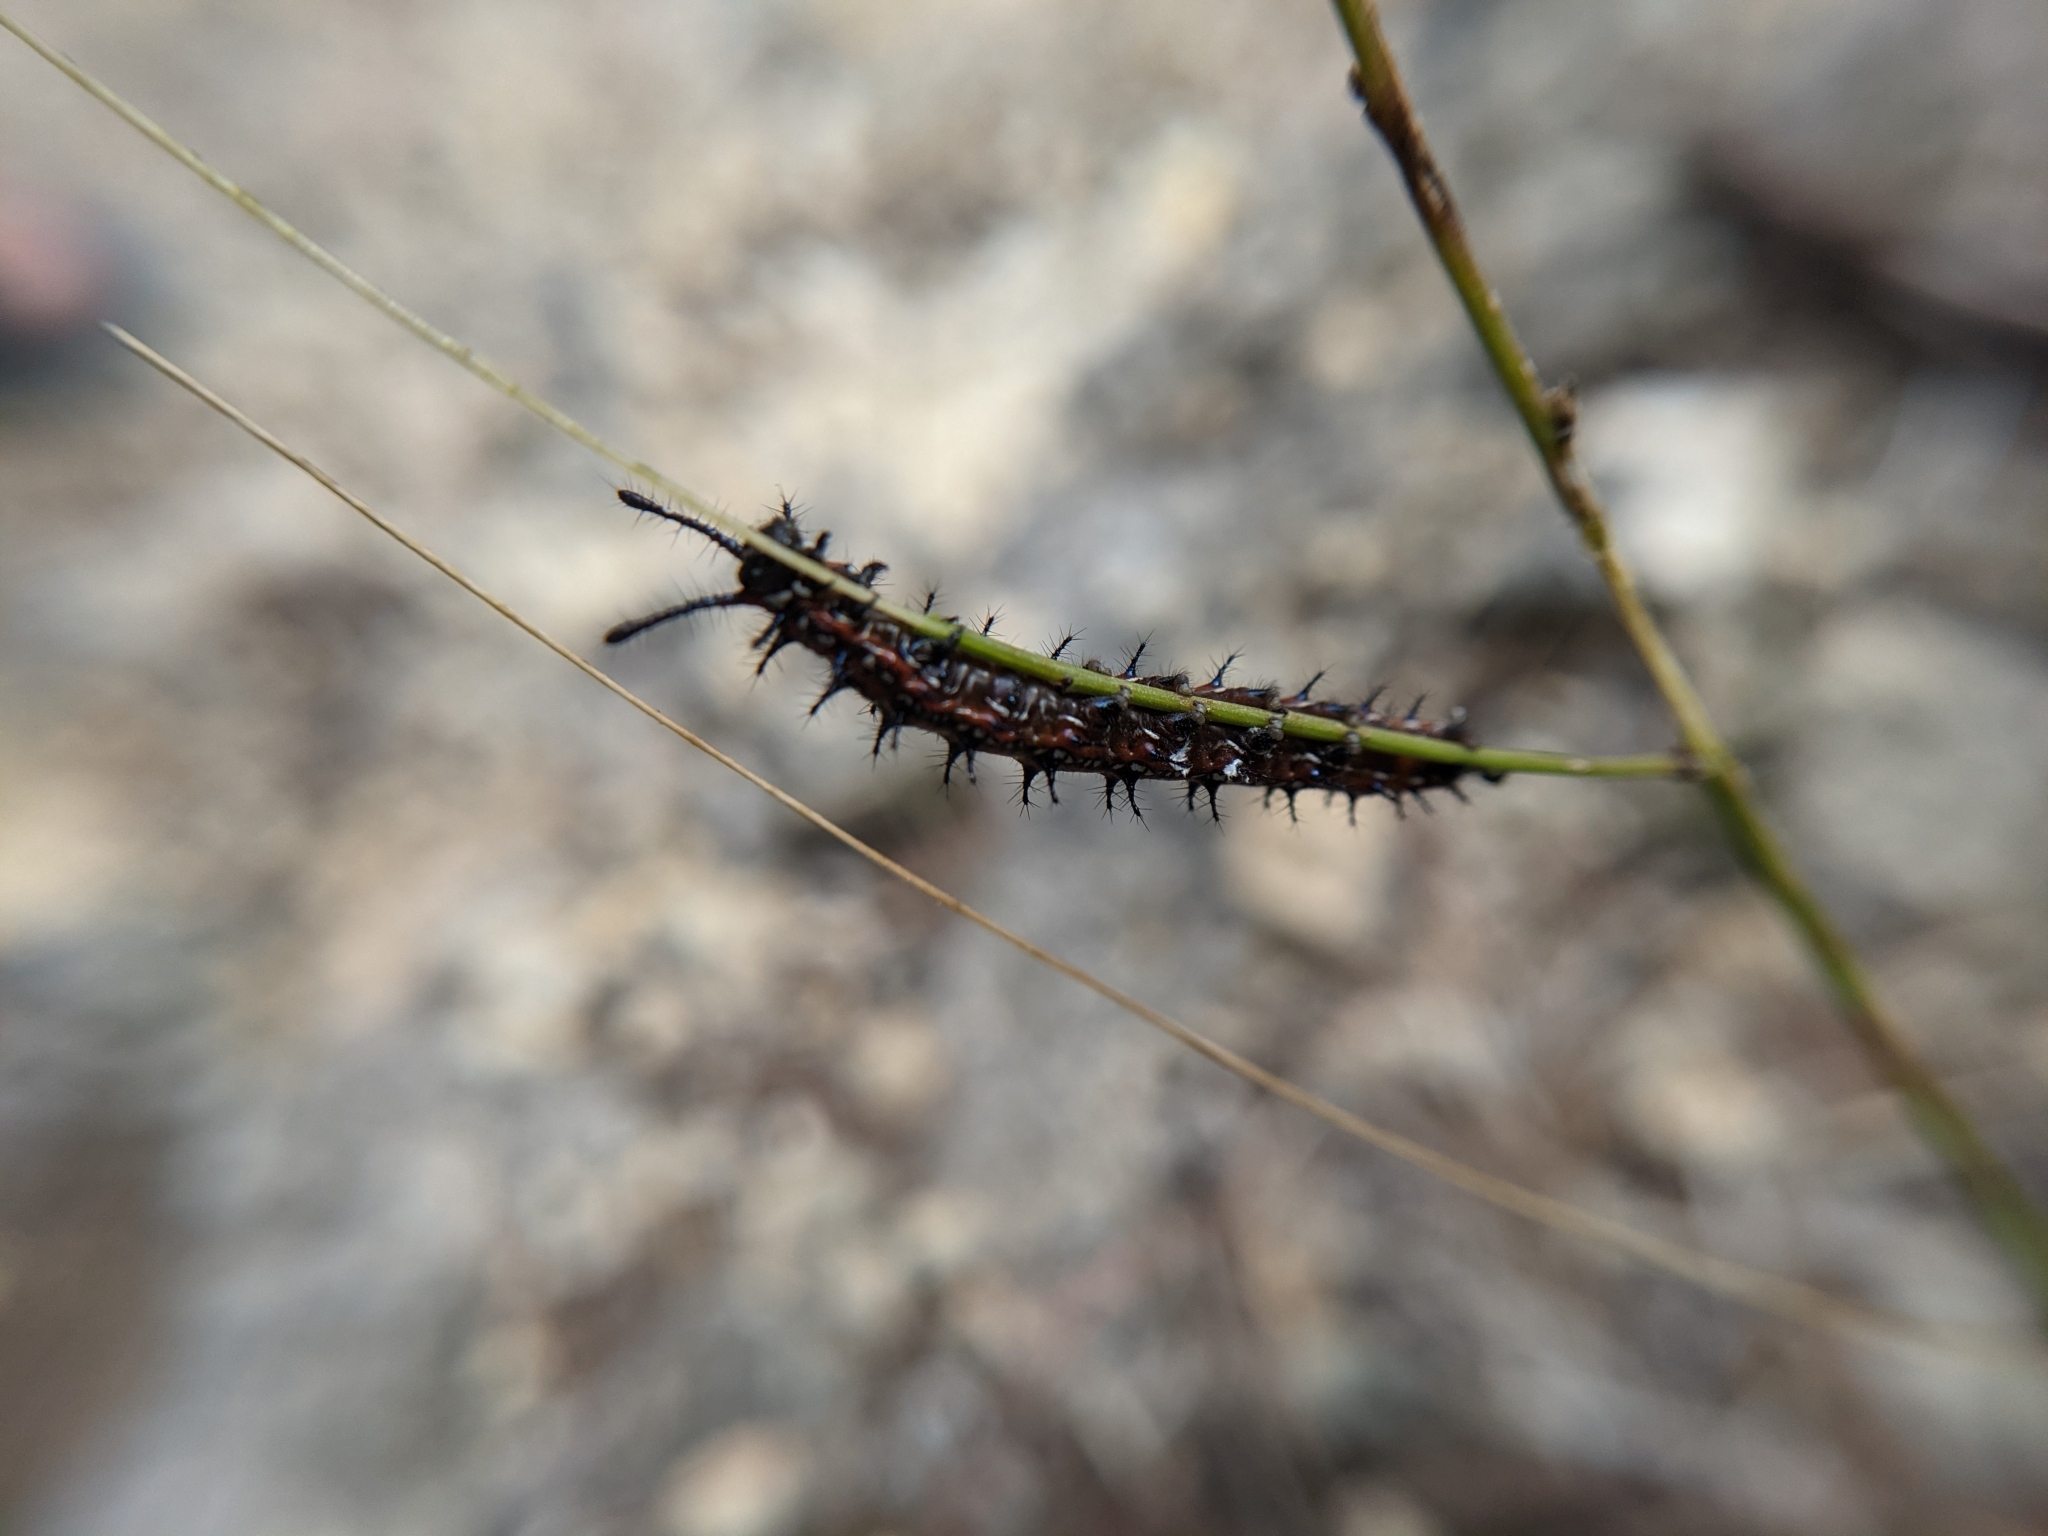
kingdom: Animalia
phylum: Arthropoda
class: Insecta
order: Lepidoptera
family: Nymphalidae
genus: Euptoieta
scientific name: Euptoieta claudia
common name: Variegated fritillary
